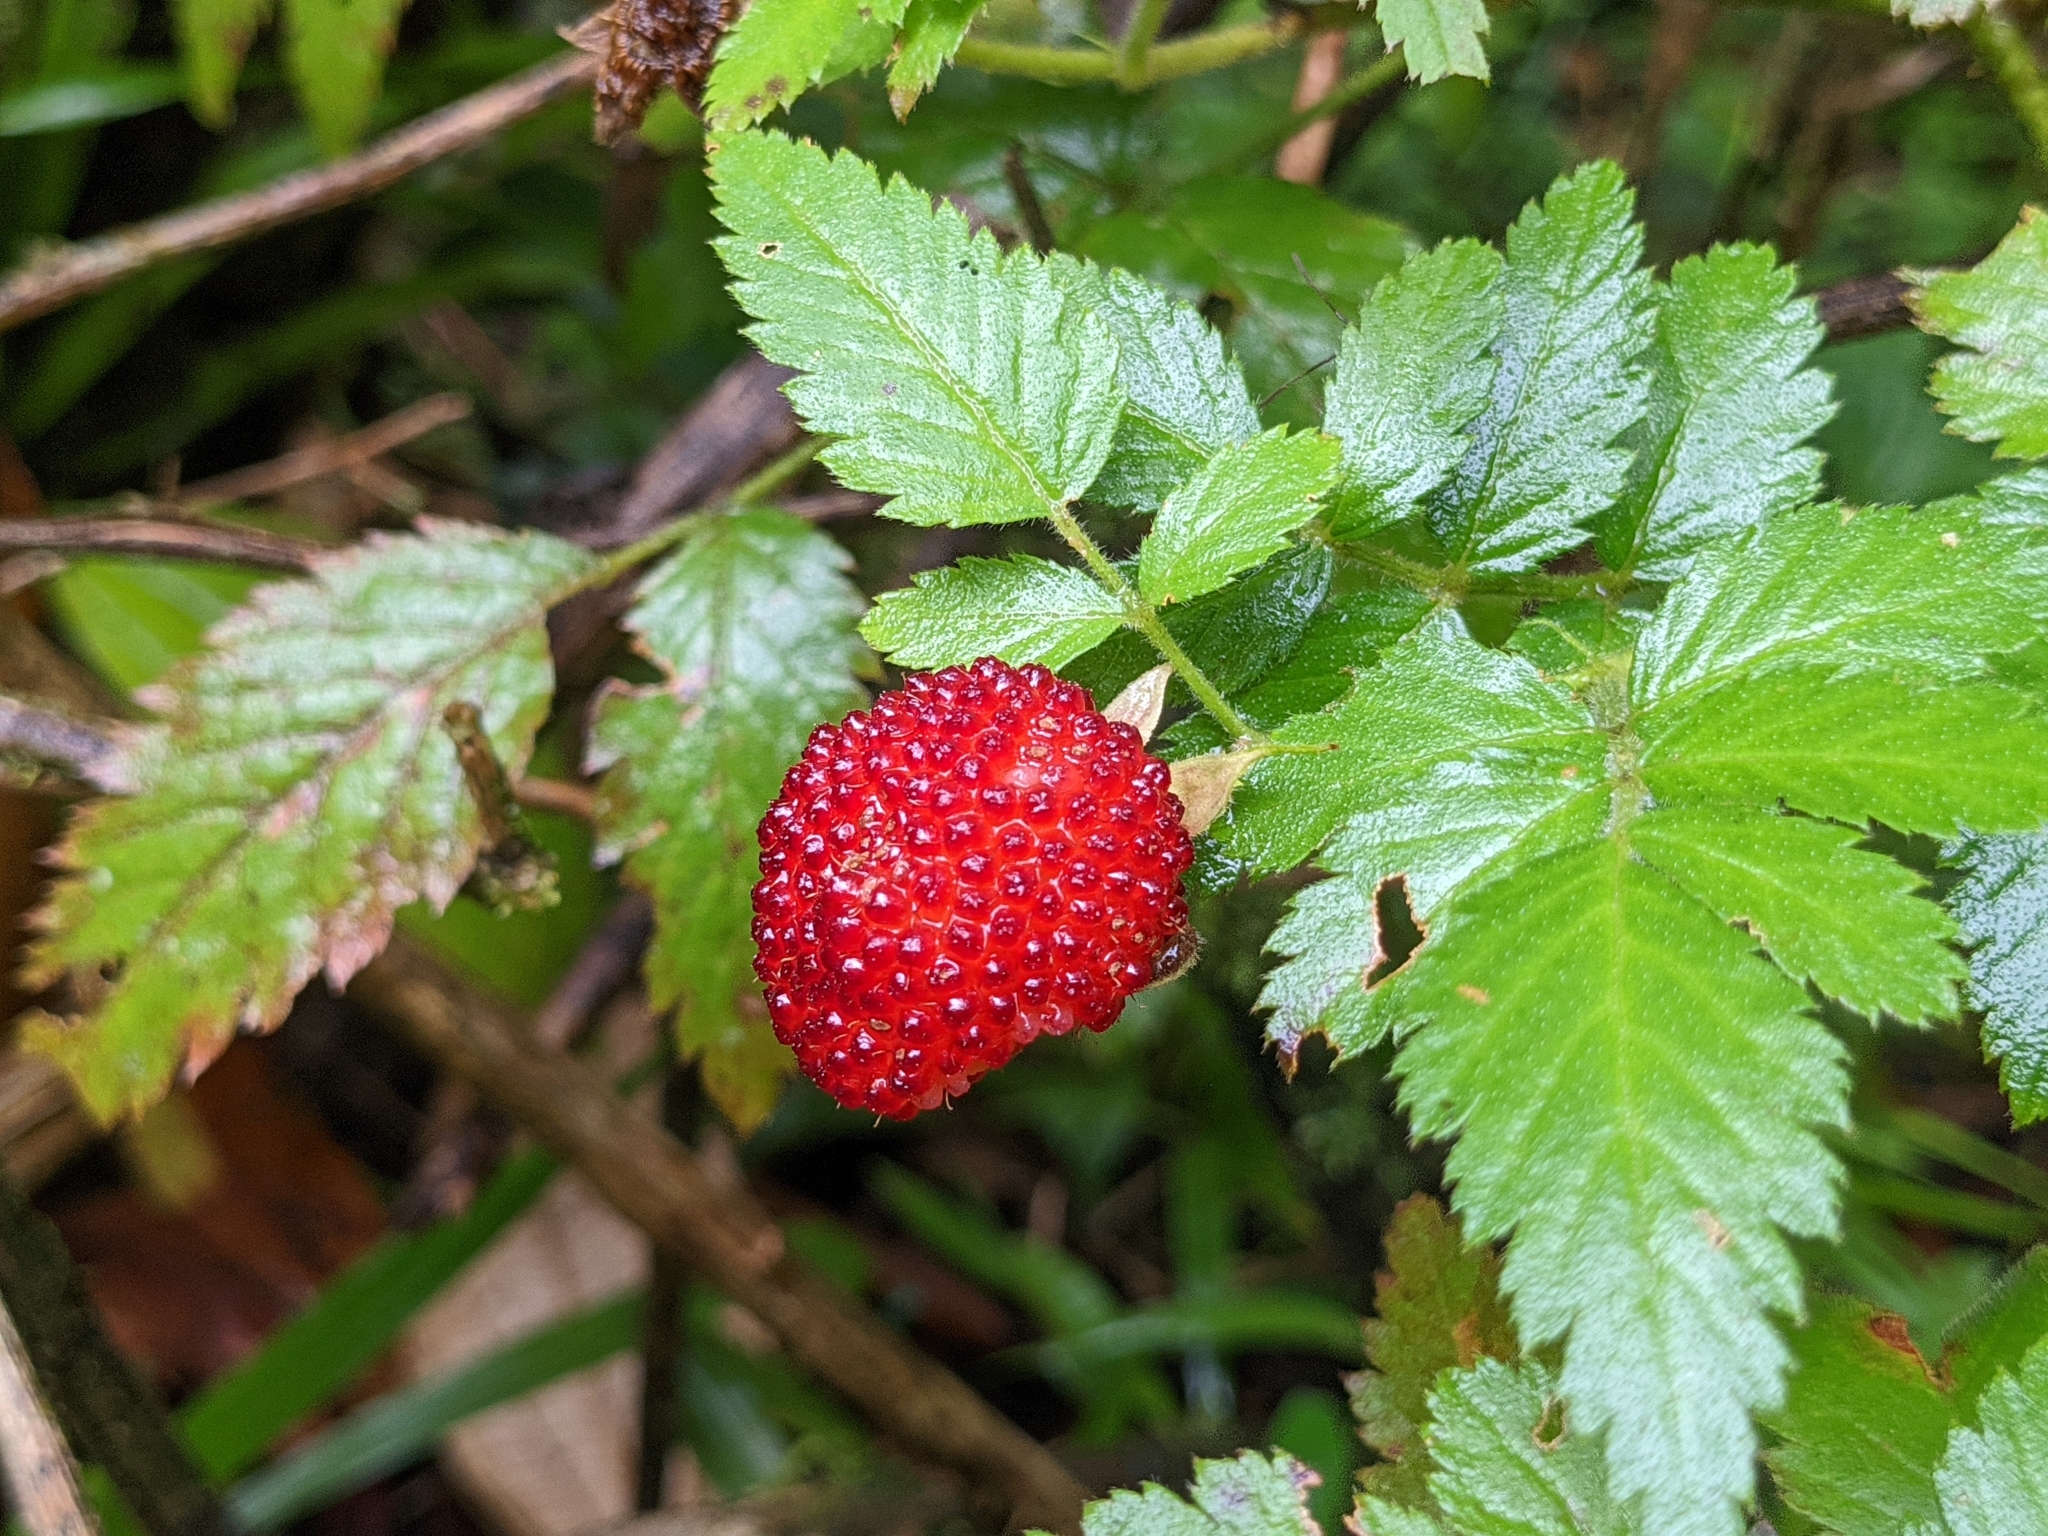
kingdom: Plantae
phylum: Tracheophyta
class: Magnoliopsida
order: Rosales
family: Rosaceae
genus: Rubus
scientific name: Rubus rosifolius
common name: Roseleaf raspberry
